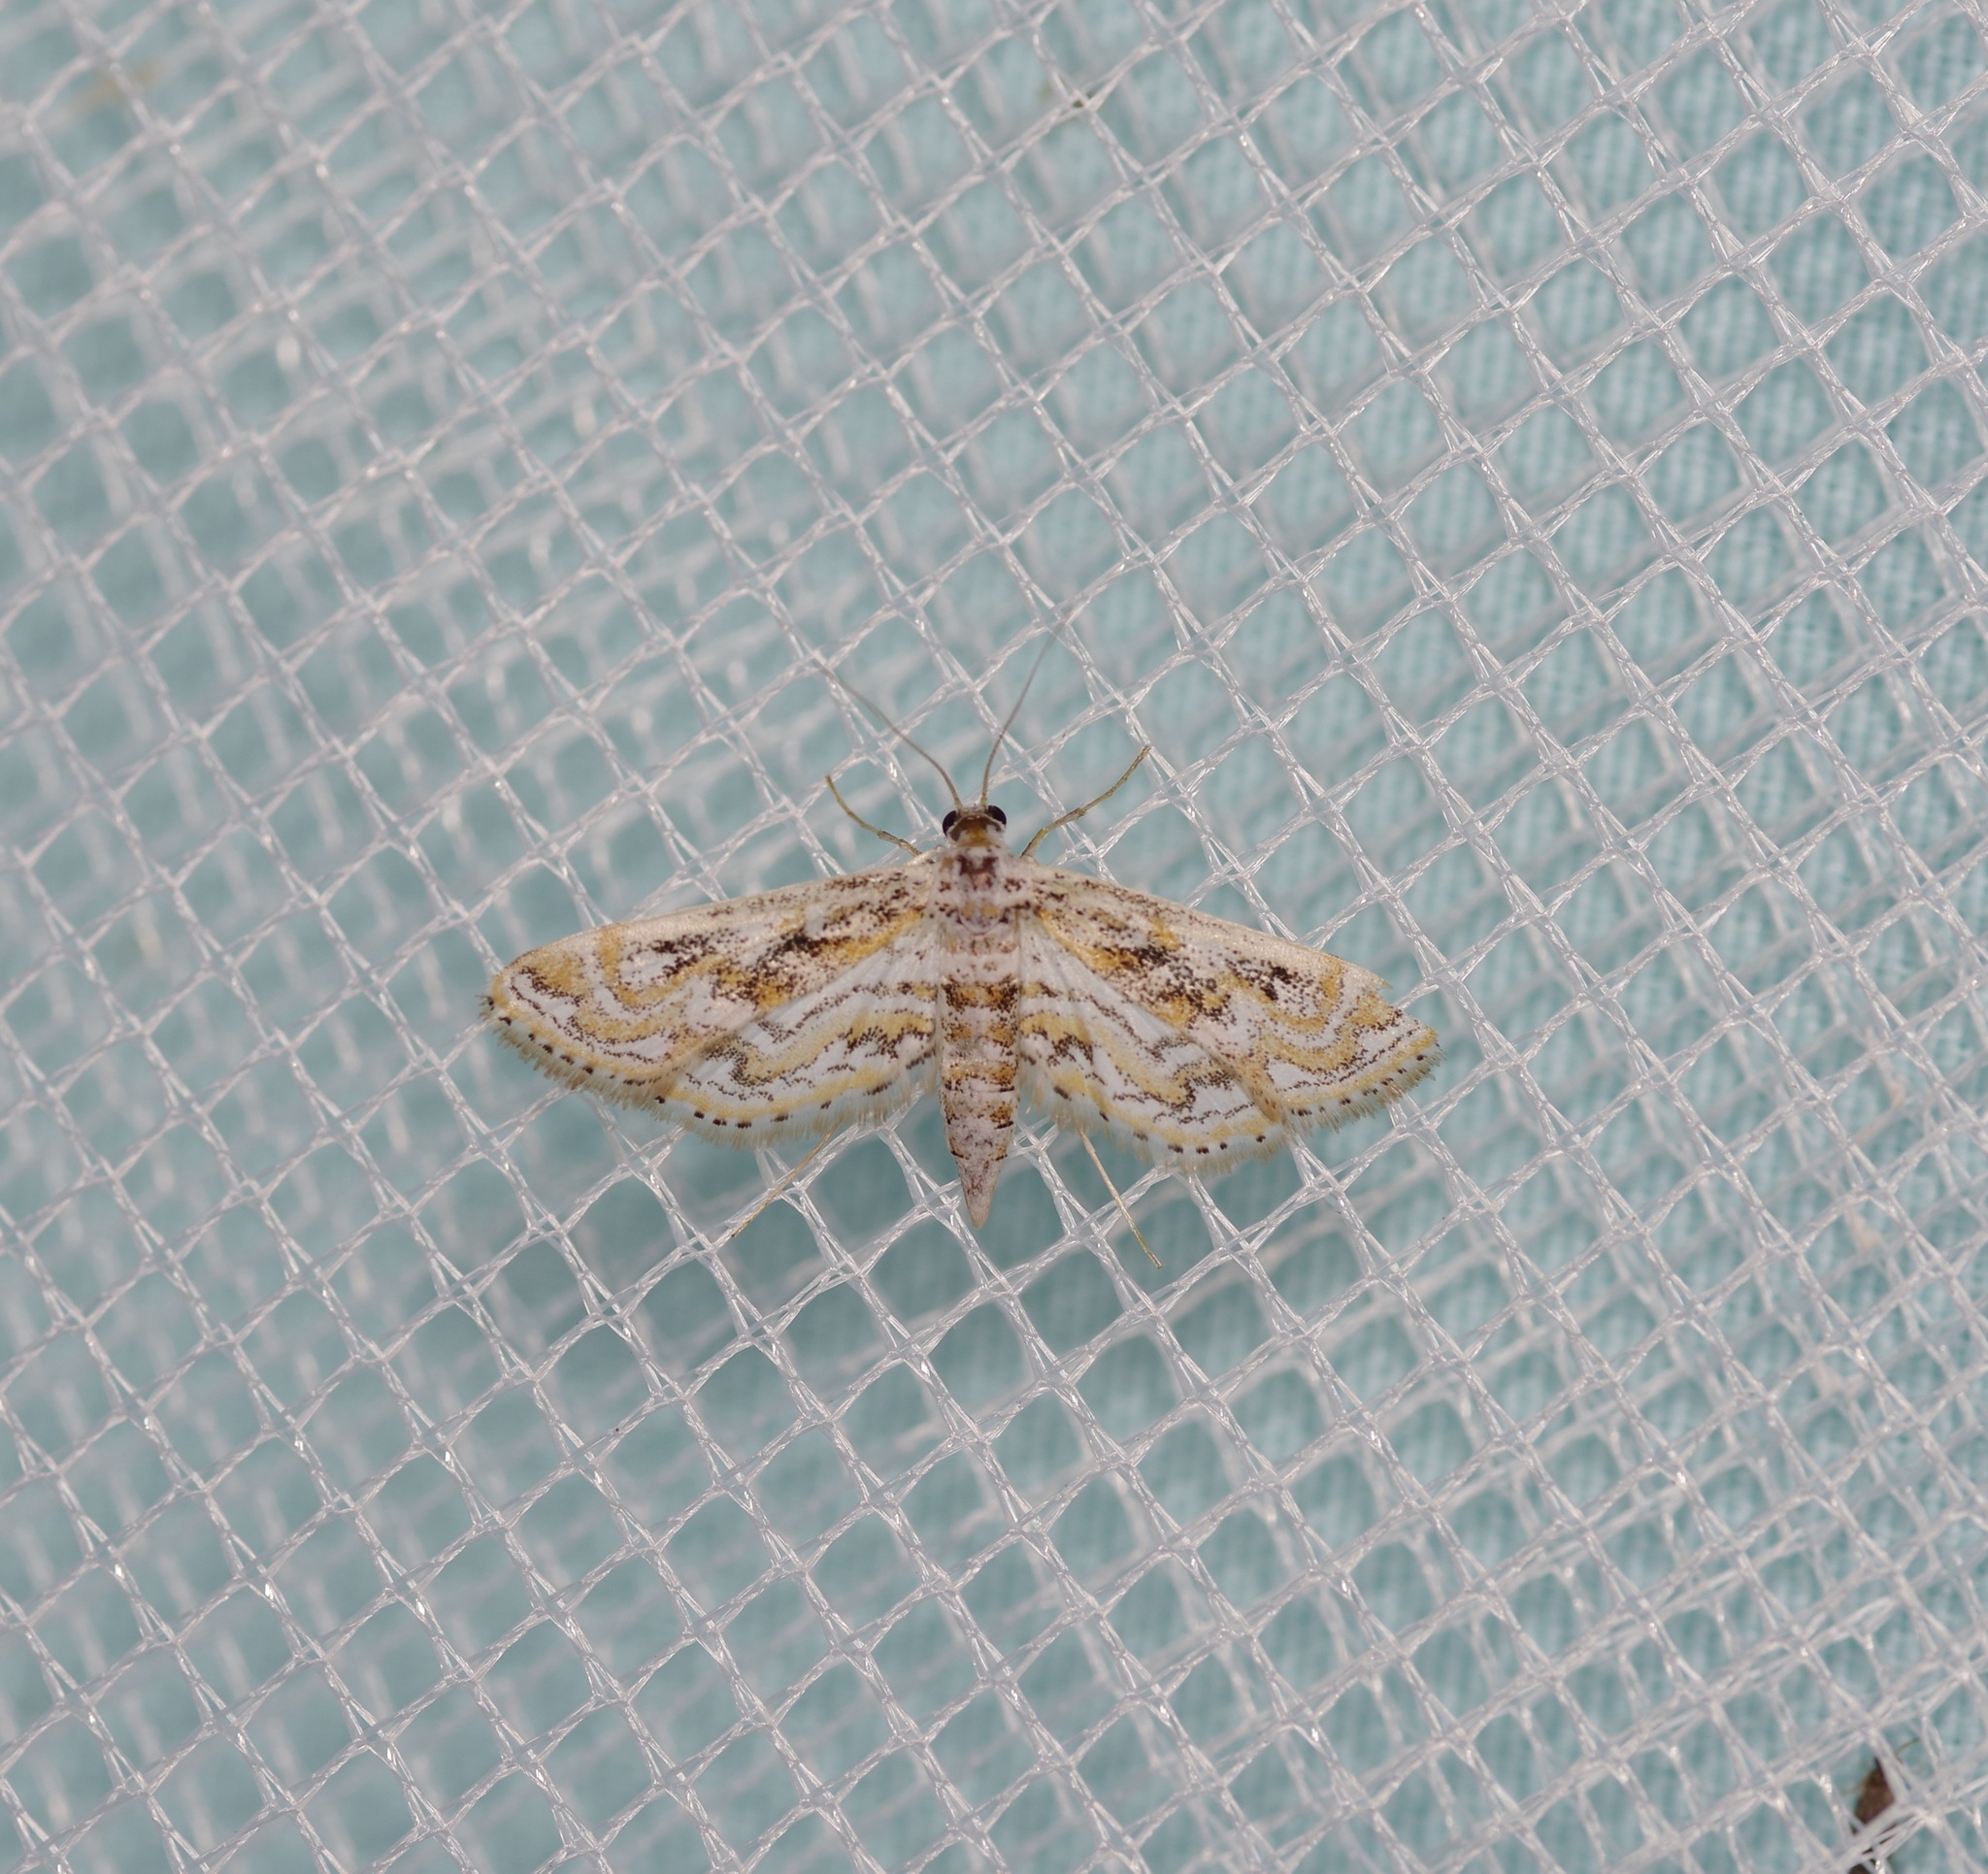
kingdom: Animalia
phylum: Arthropoda
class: Insecta
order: Lepidoptera
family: Crambidae
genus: Parapoynx
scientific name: Parapoynx diminutalis
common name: Hydrilla leafcutter
